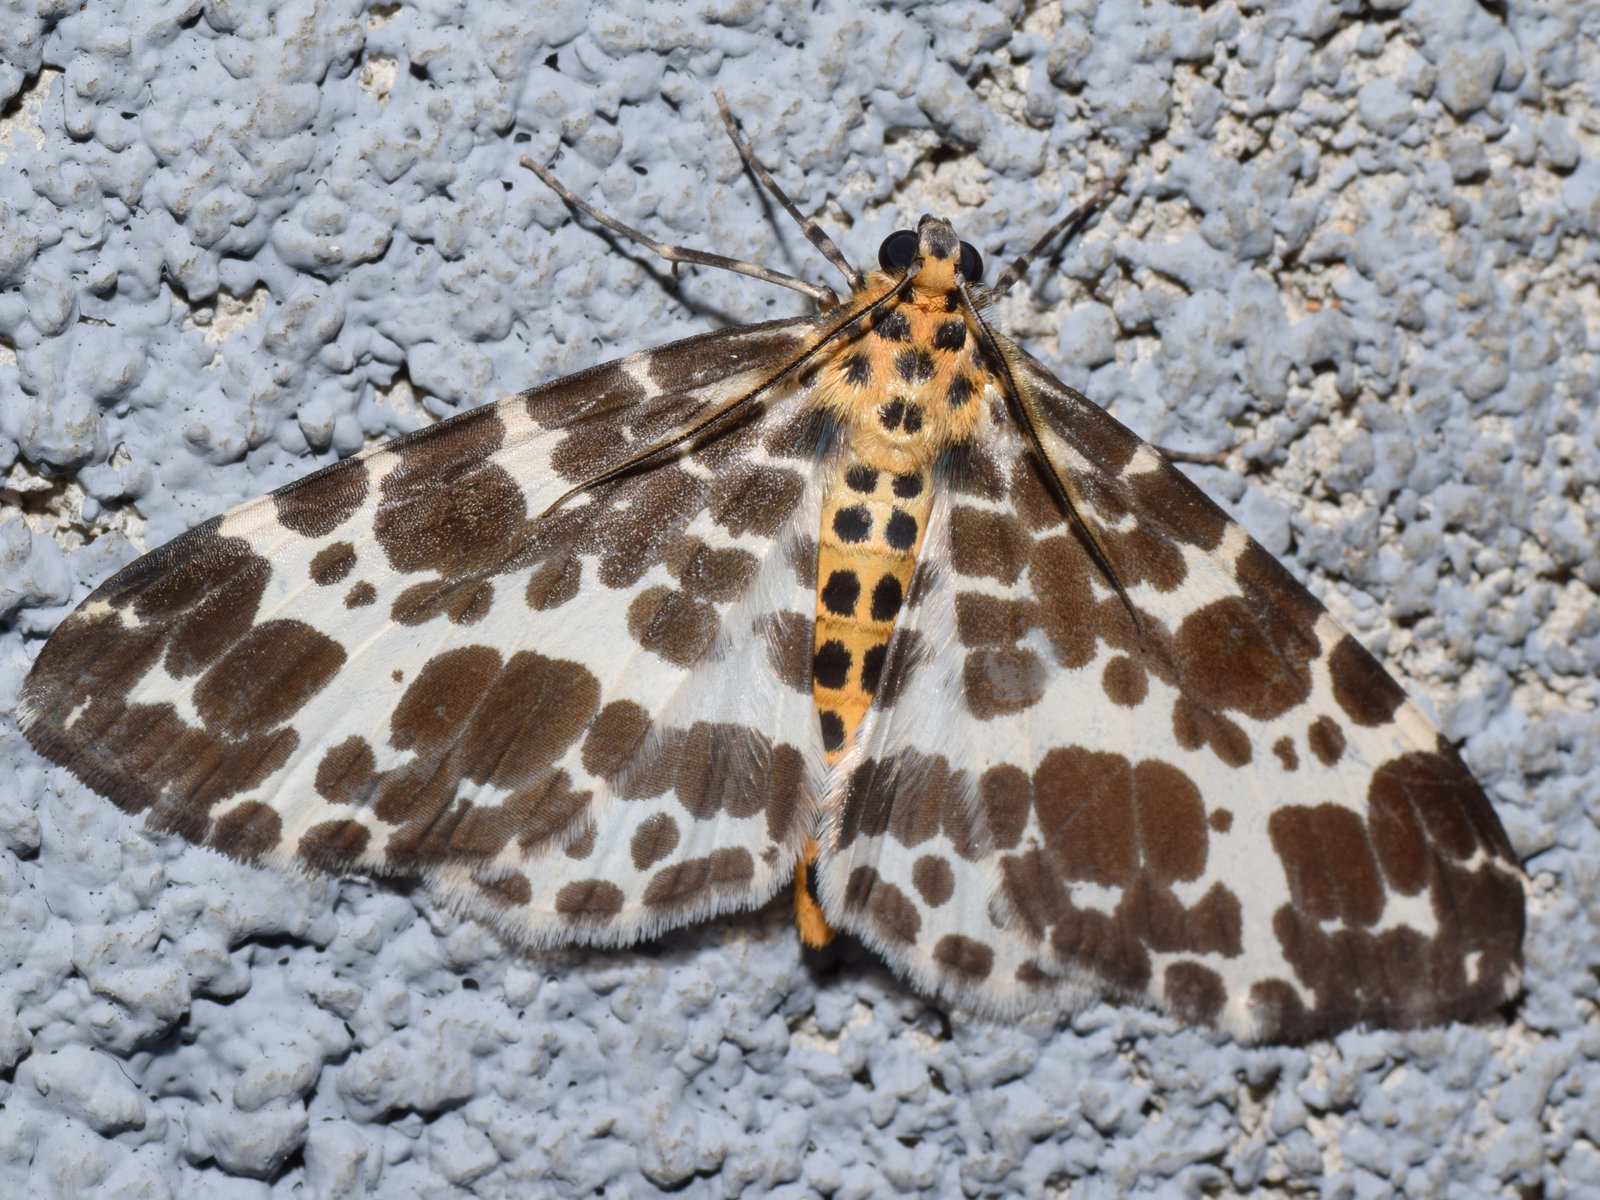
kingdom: Animalia
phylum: Arthropoda
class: Insecta
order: Lepidoptera
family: Geometridae
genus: Dilophodes
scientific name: Dilophodes elegans
